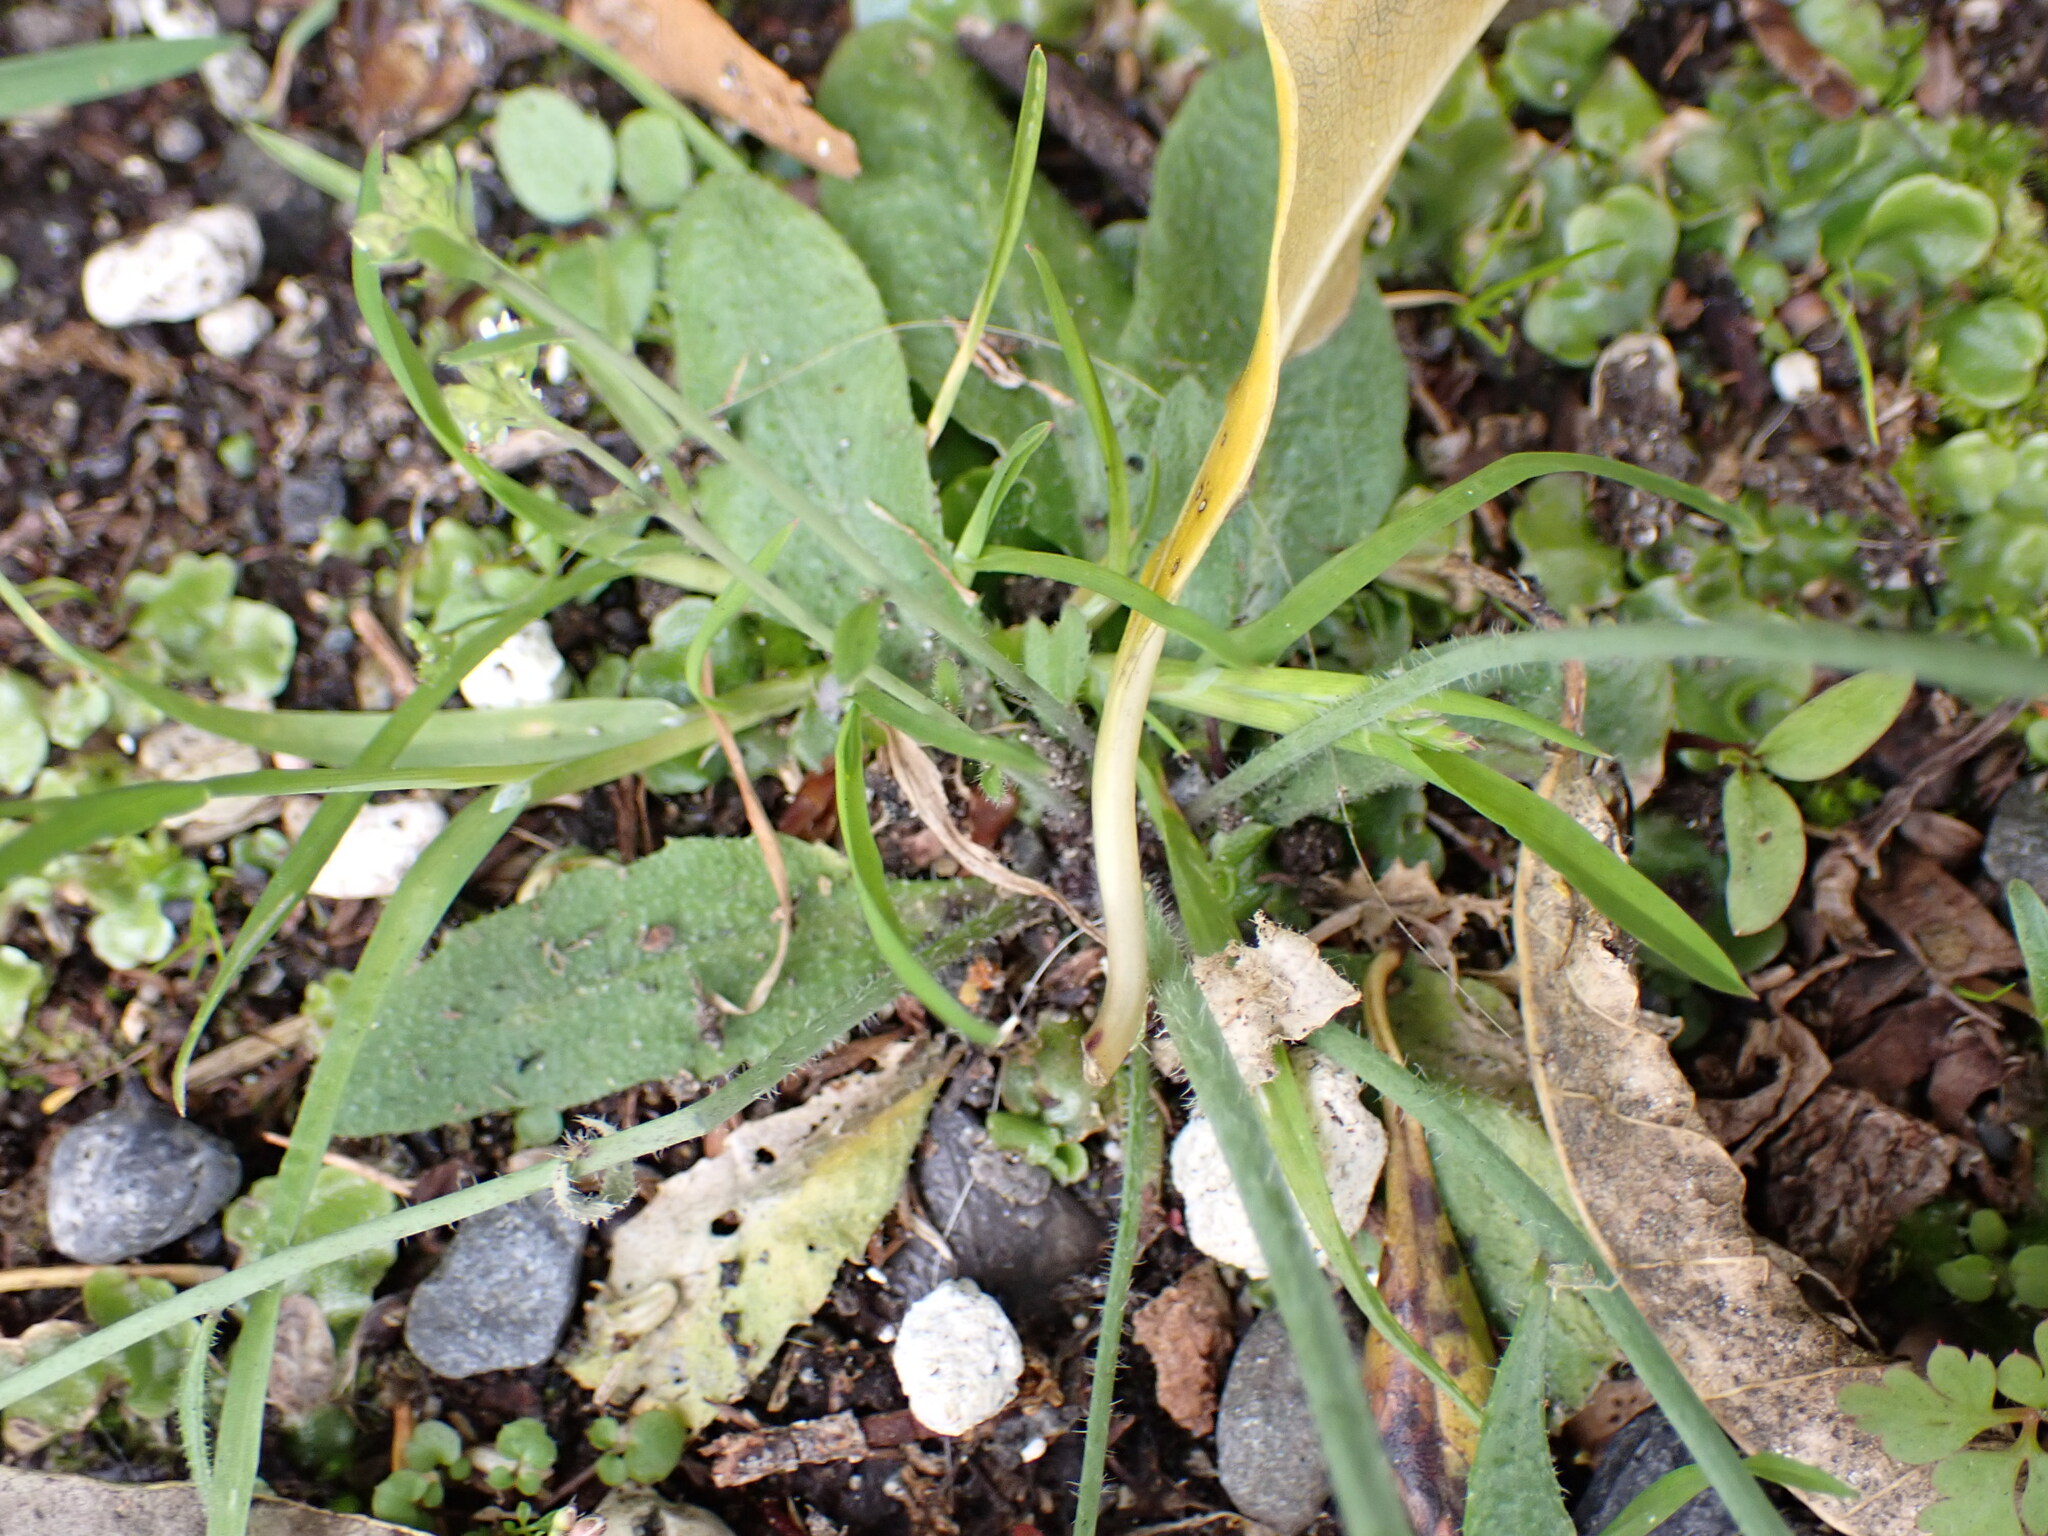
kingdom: Plantae
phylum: Tracheophyta
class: Magnoliopsida
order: Brassicales
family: Brassicaceae
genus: Arabidopsis
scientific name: Arabidopsis thaliana
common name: Thale cress
